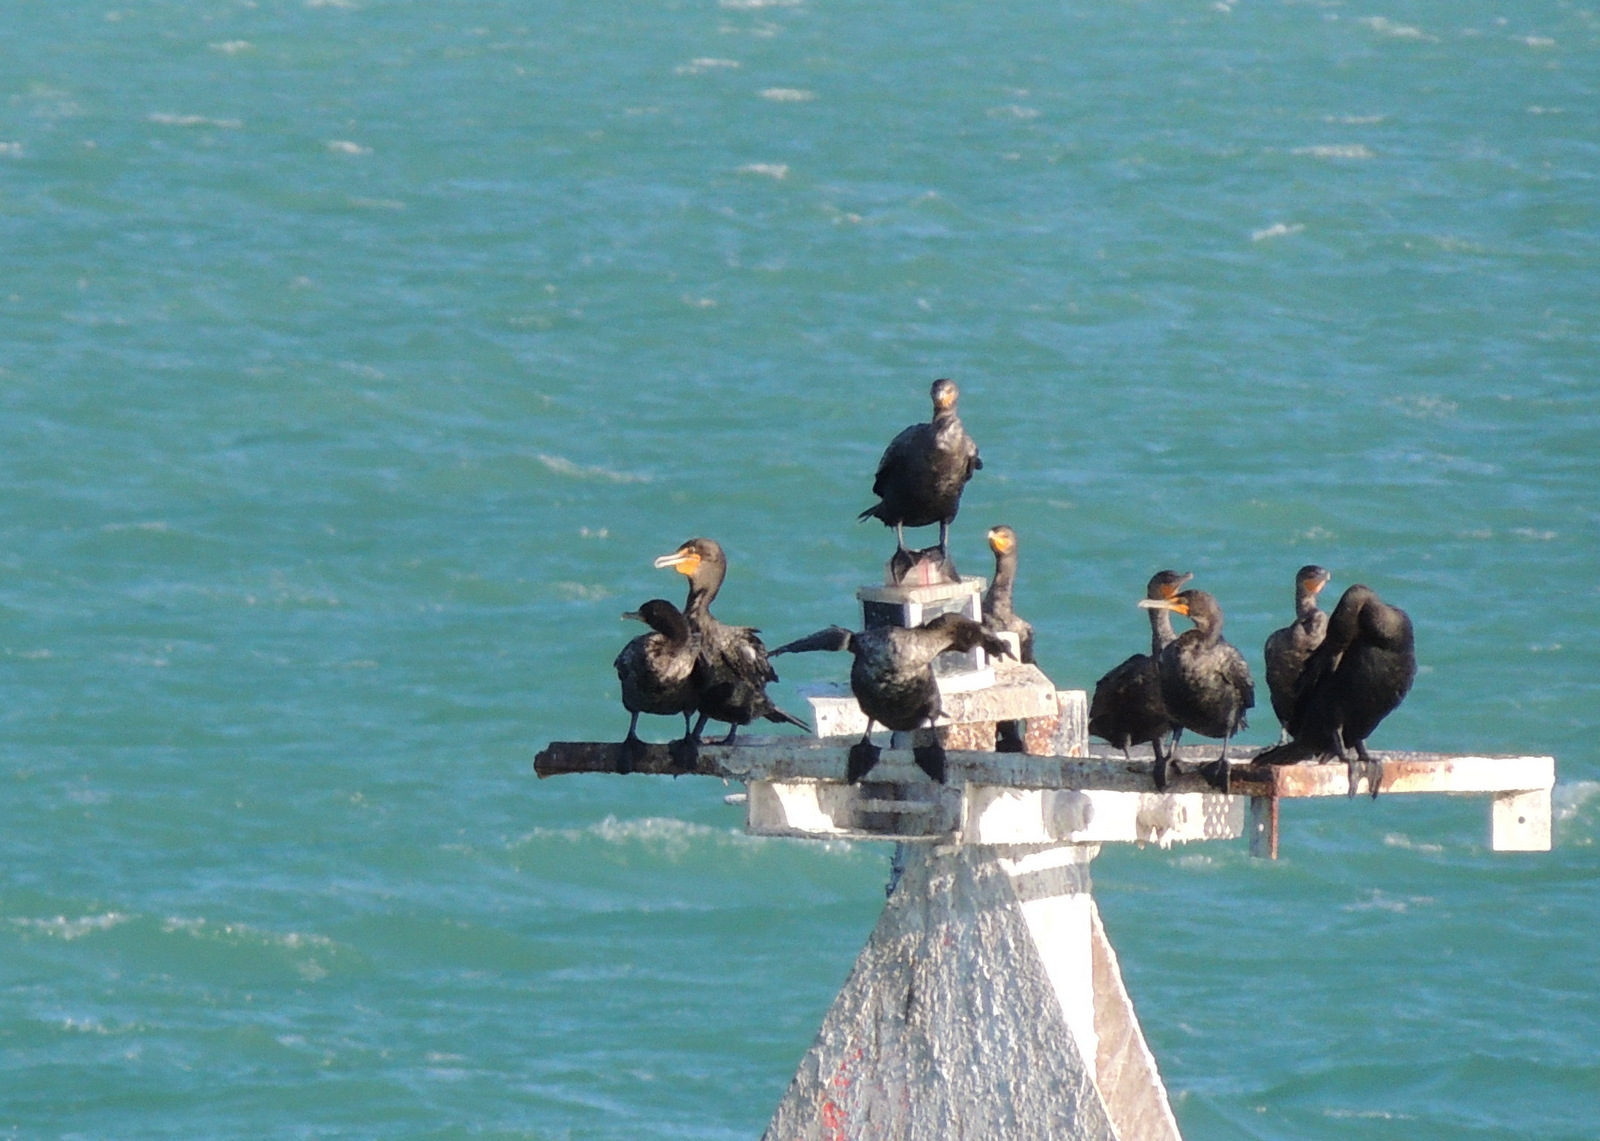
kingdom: Animalia
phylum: Chordata
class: Aves
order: Suliformes
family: Phalacrocoracidae
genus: Phalacrocorax
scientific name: Phalacrocorax auritus
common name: Double-crested cormorant
